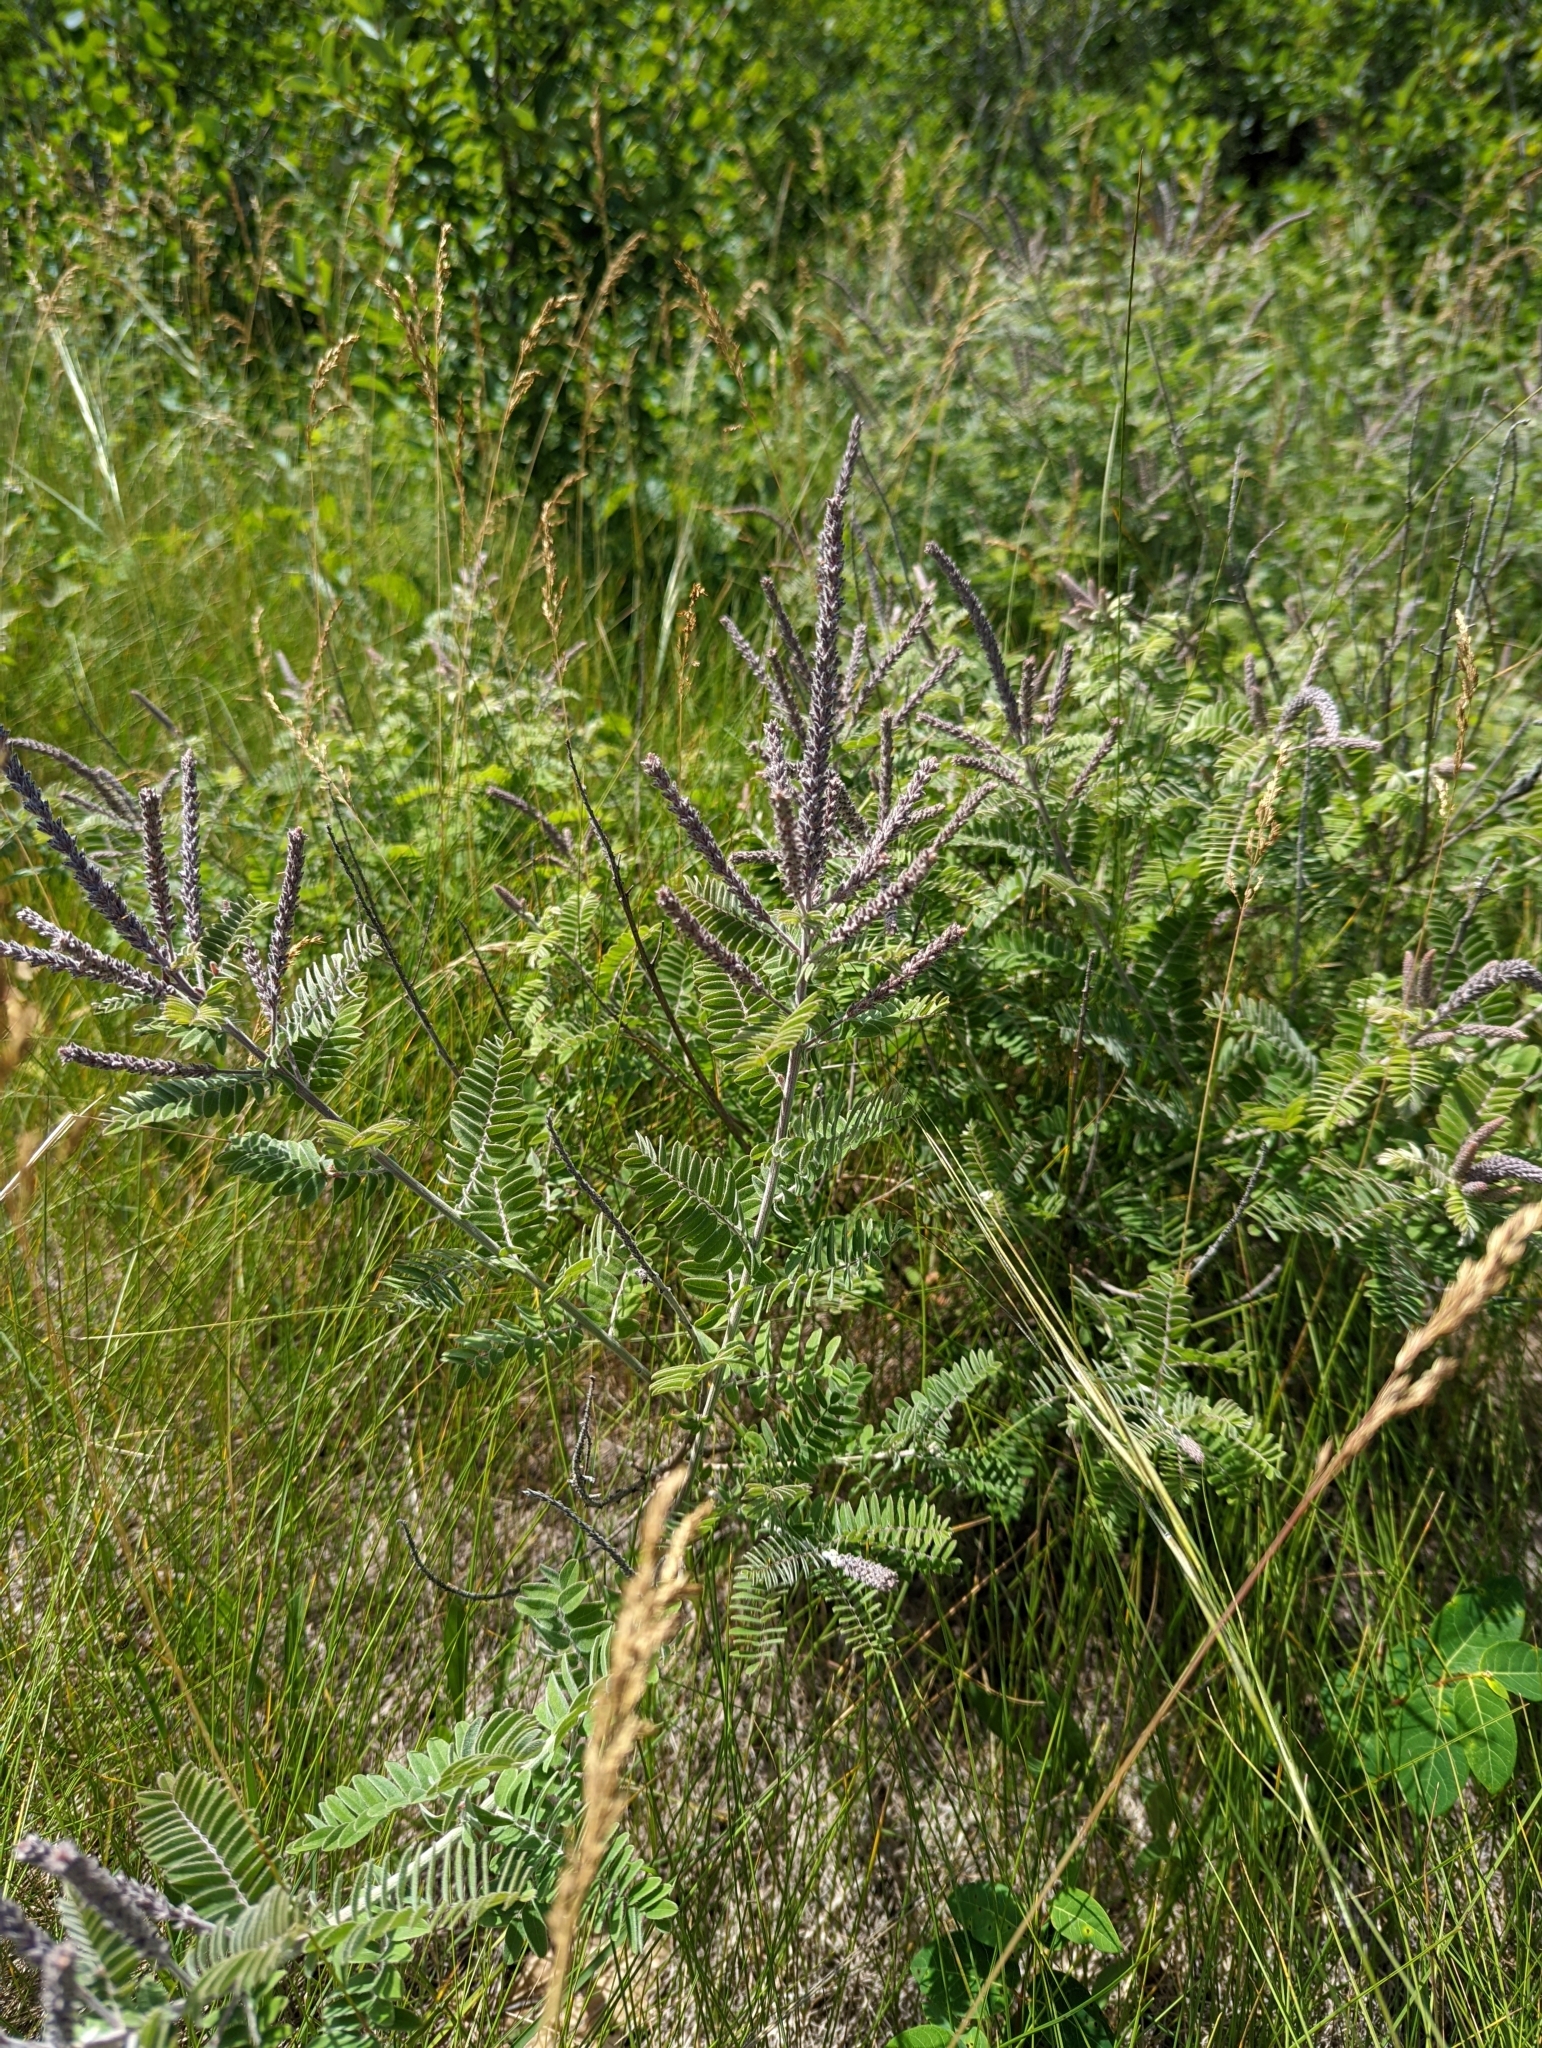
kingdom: Plantae
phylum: Tracheophyta
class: Magnoliopsida
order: Fabales
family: Fabaceae
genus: Amorpha
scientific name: Amorpha canescens
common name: Leadplant
